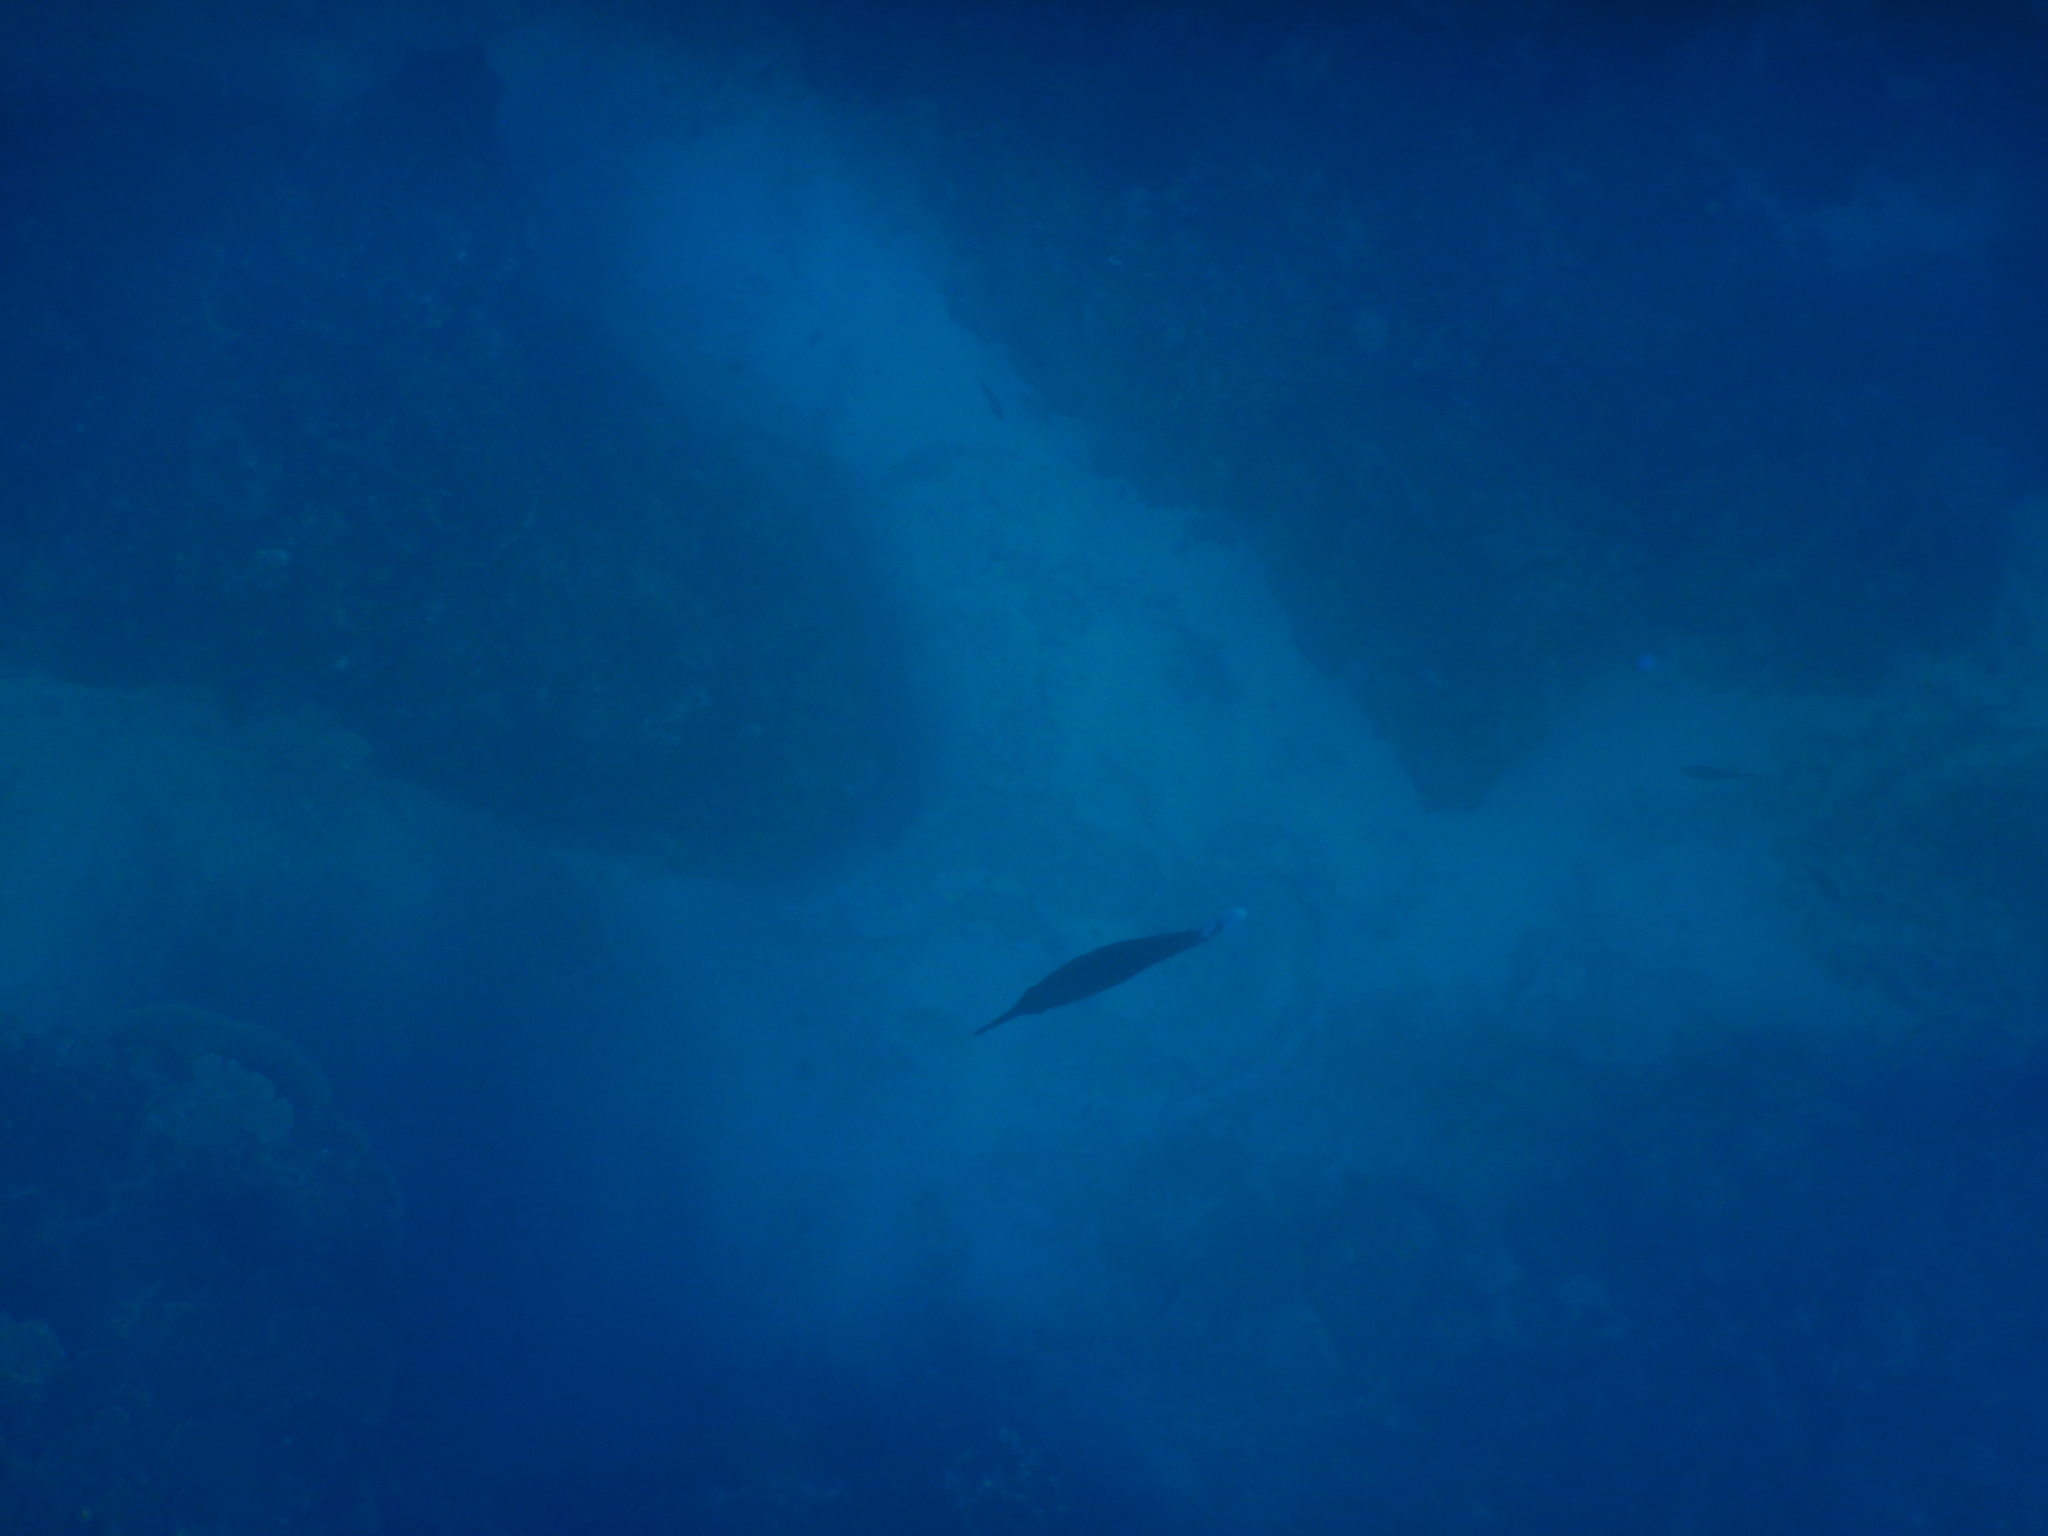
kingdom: Animalia
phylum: Chordata
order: Perciformes
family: Acanthuridae
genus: Naso
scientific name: Naso brevirostris
